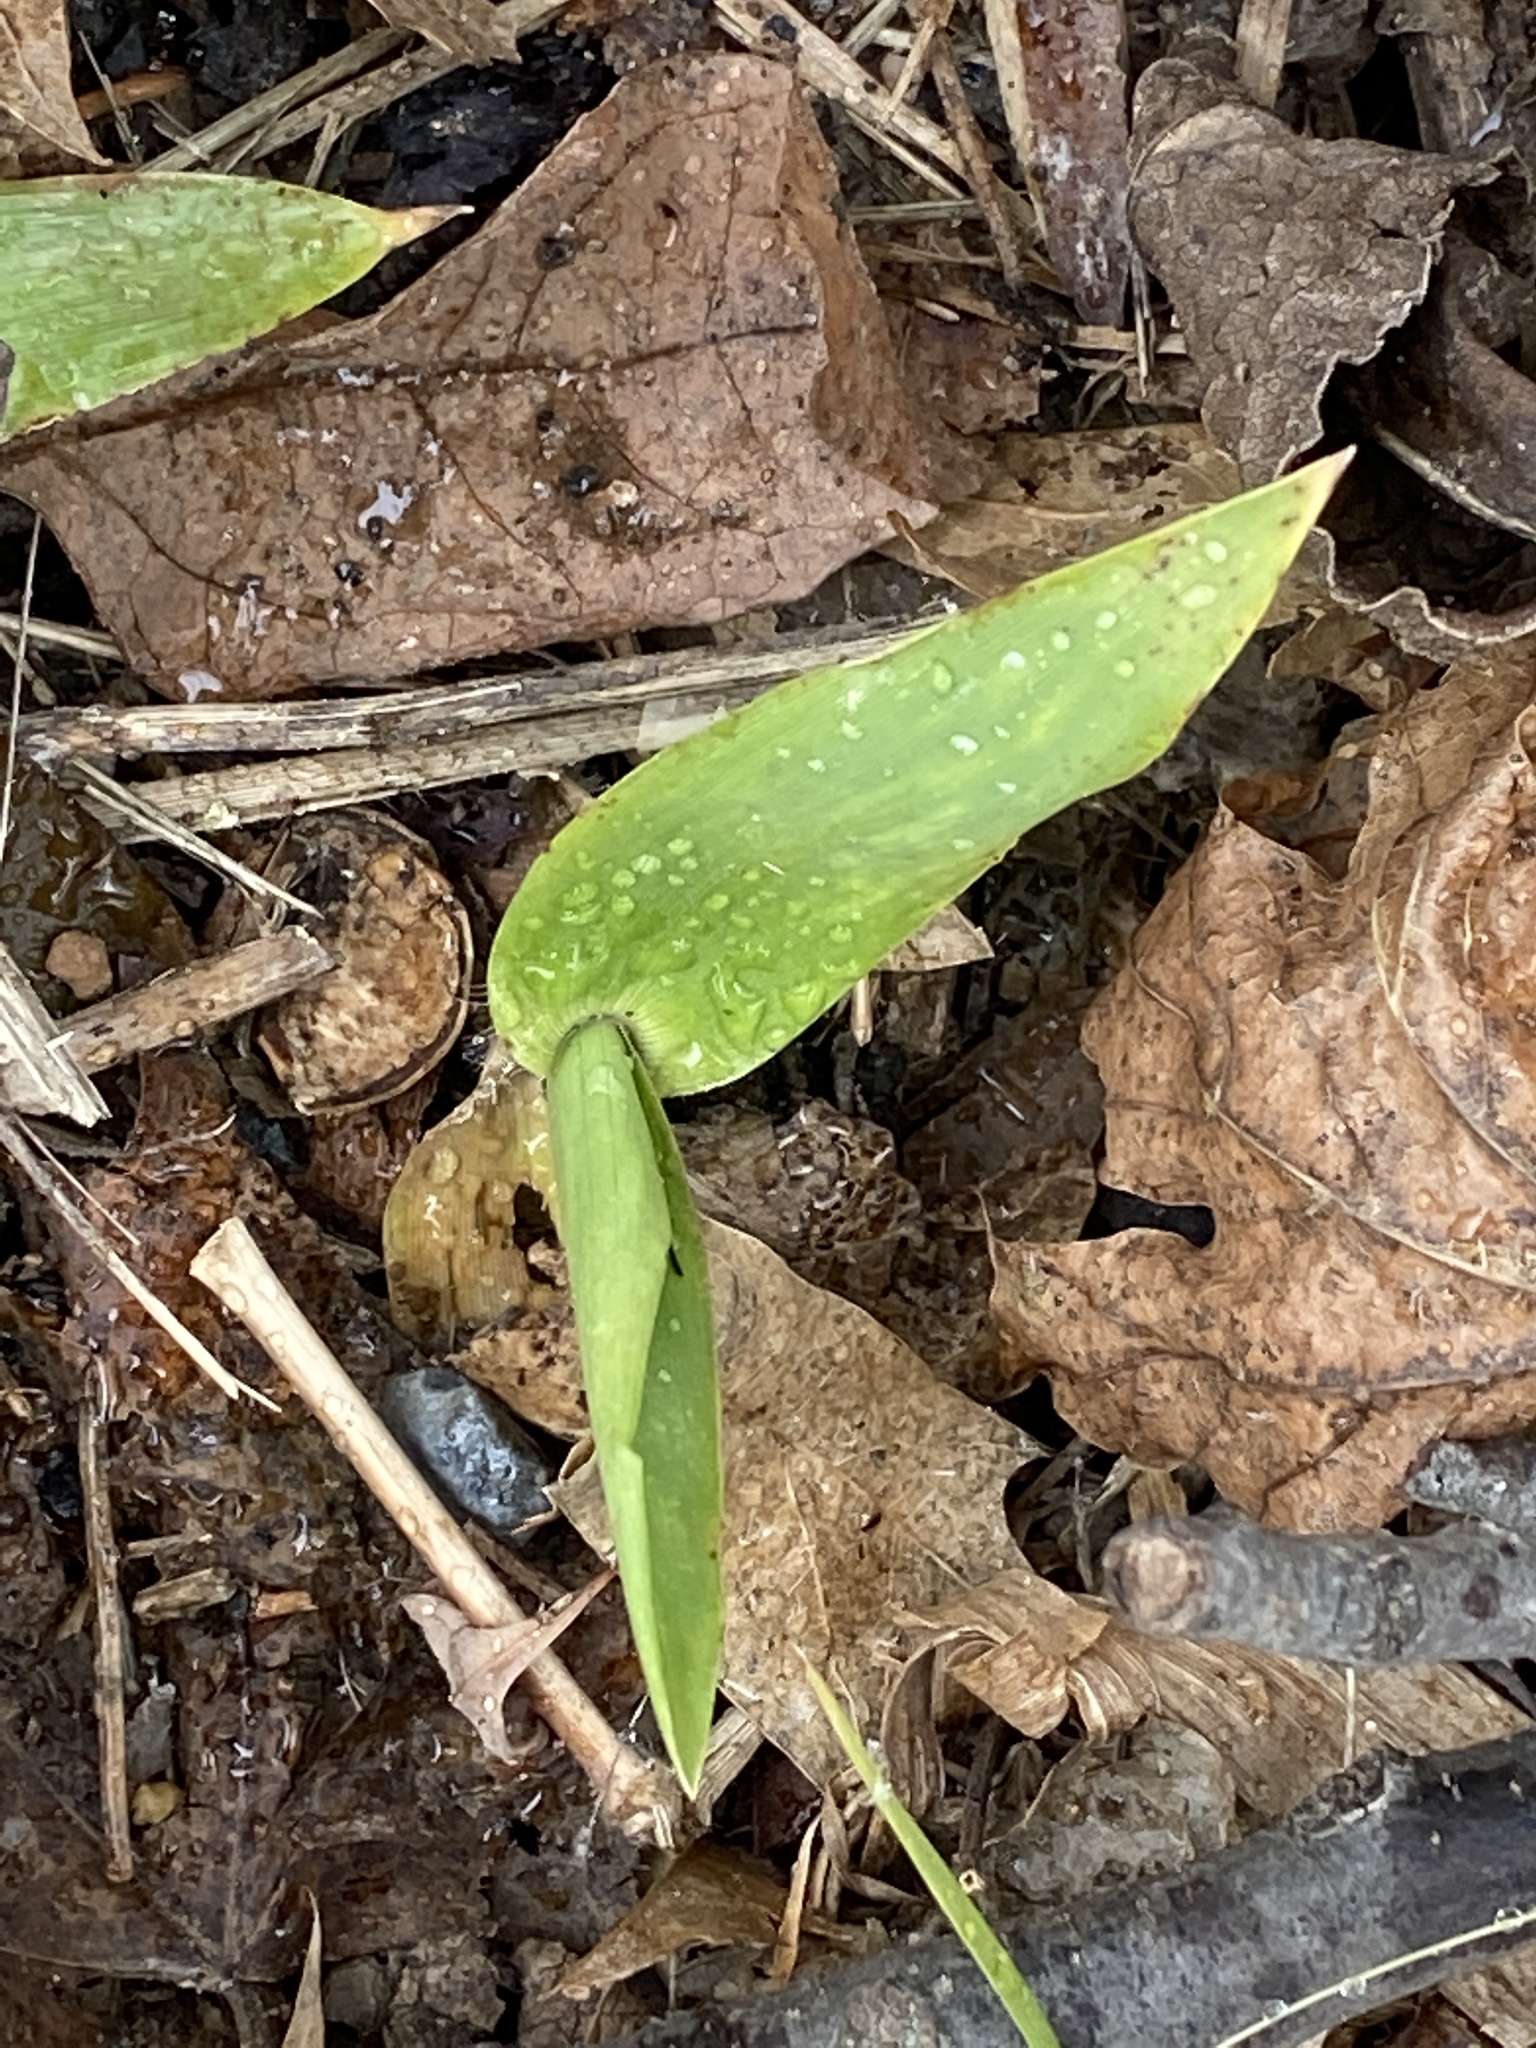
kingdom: Plantae
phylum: Tracheophyta
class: Liliopsida
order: Poales
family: Poaceae
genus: Dichanthelium
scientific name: Dichanthelium clandestinum
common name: Deer-tongue grass
